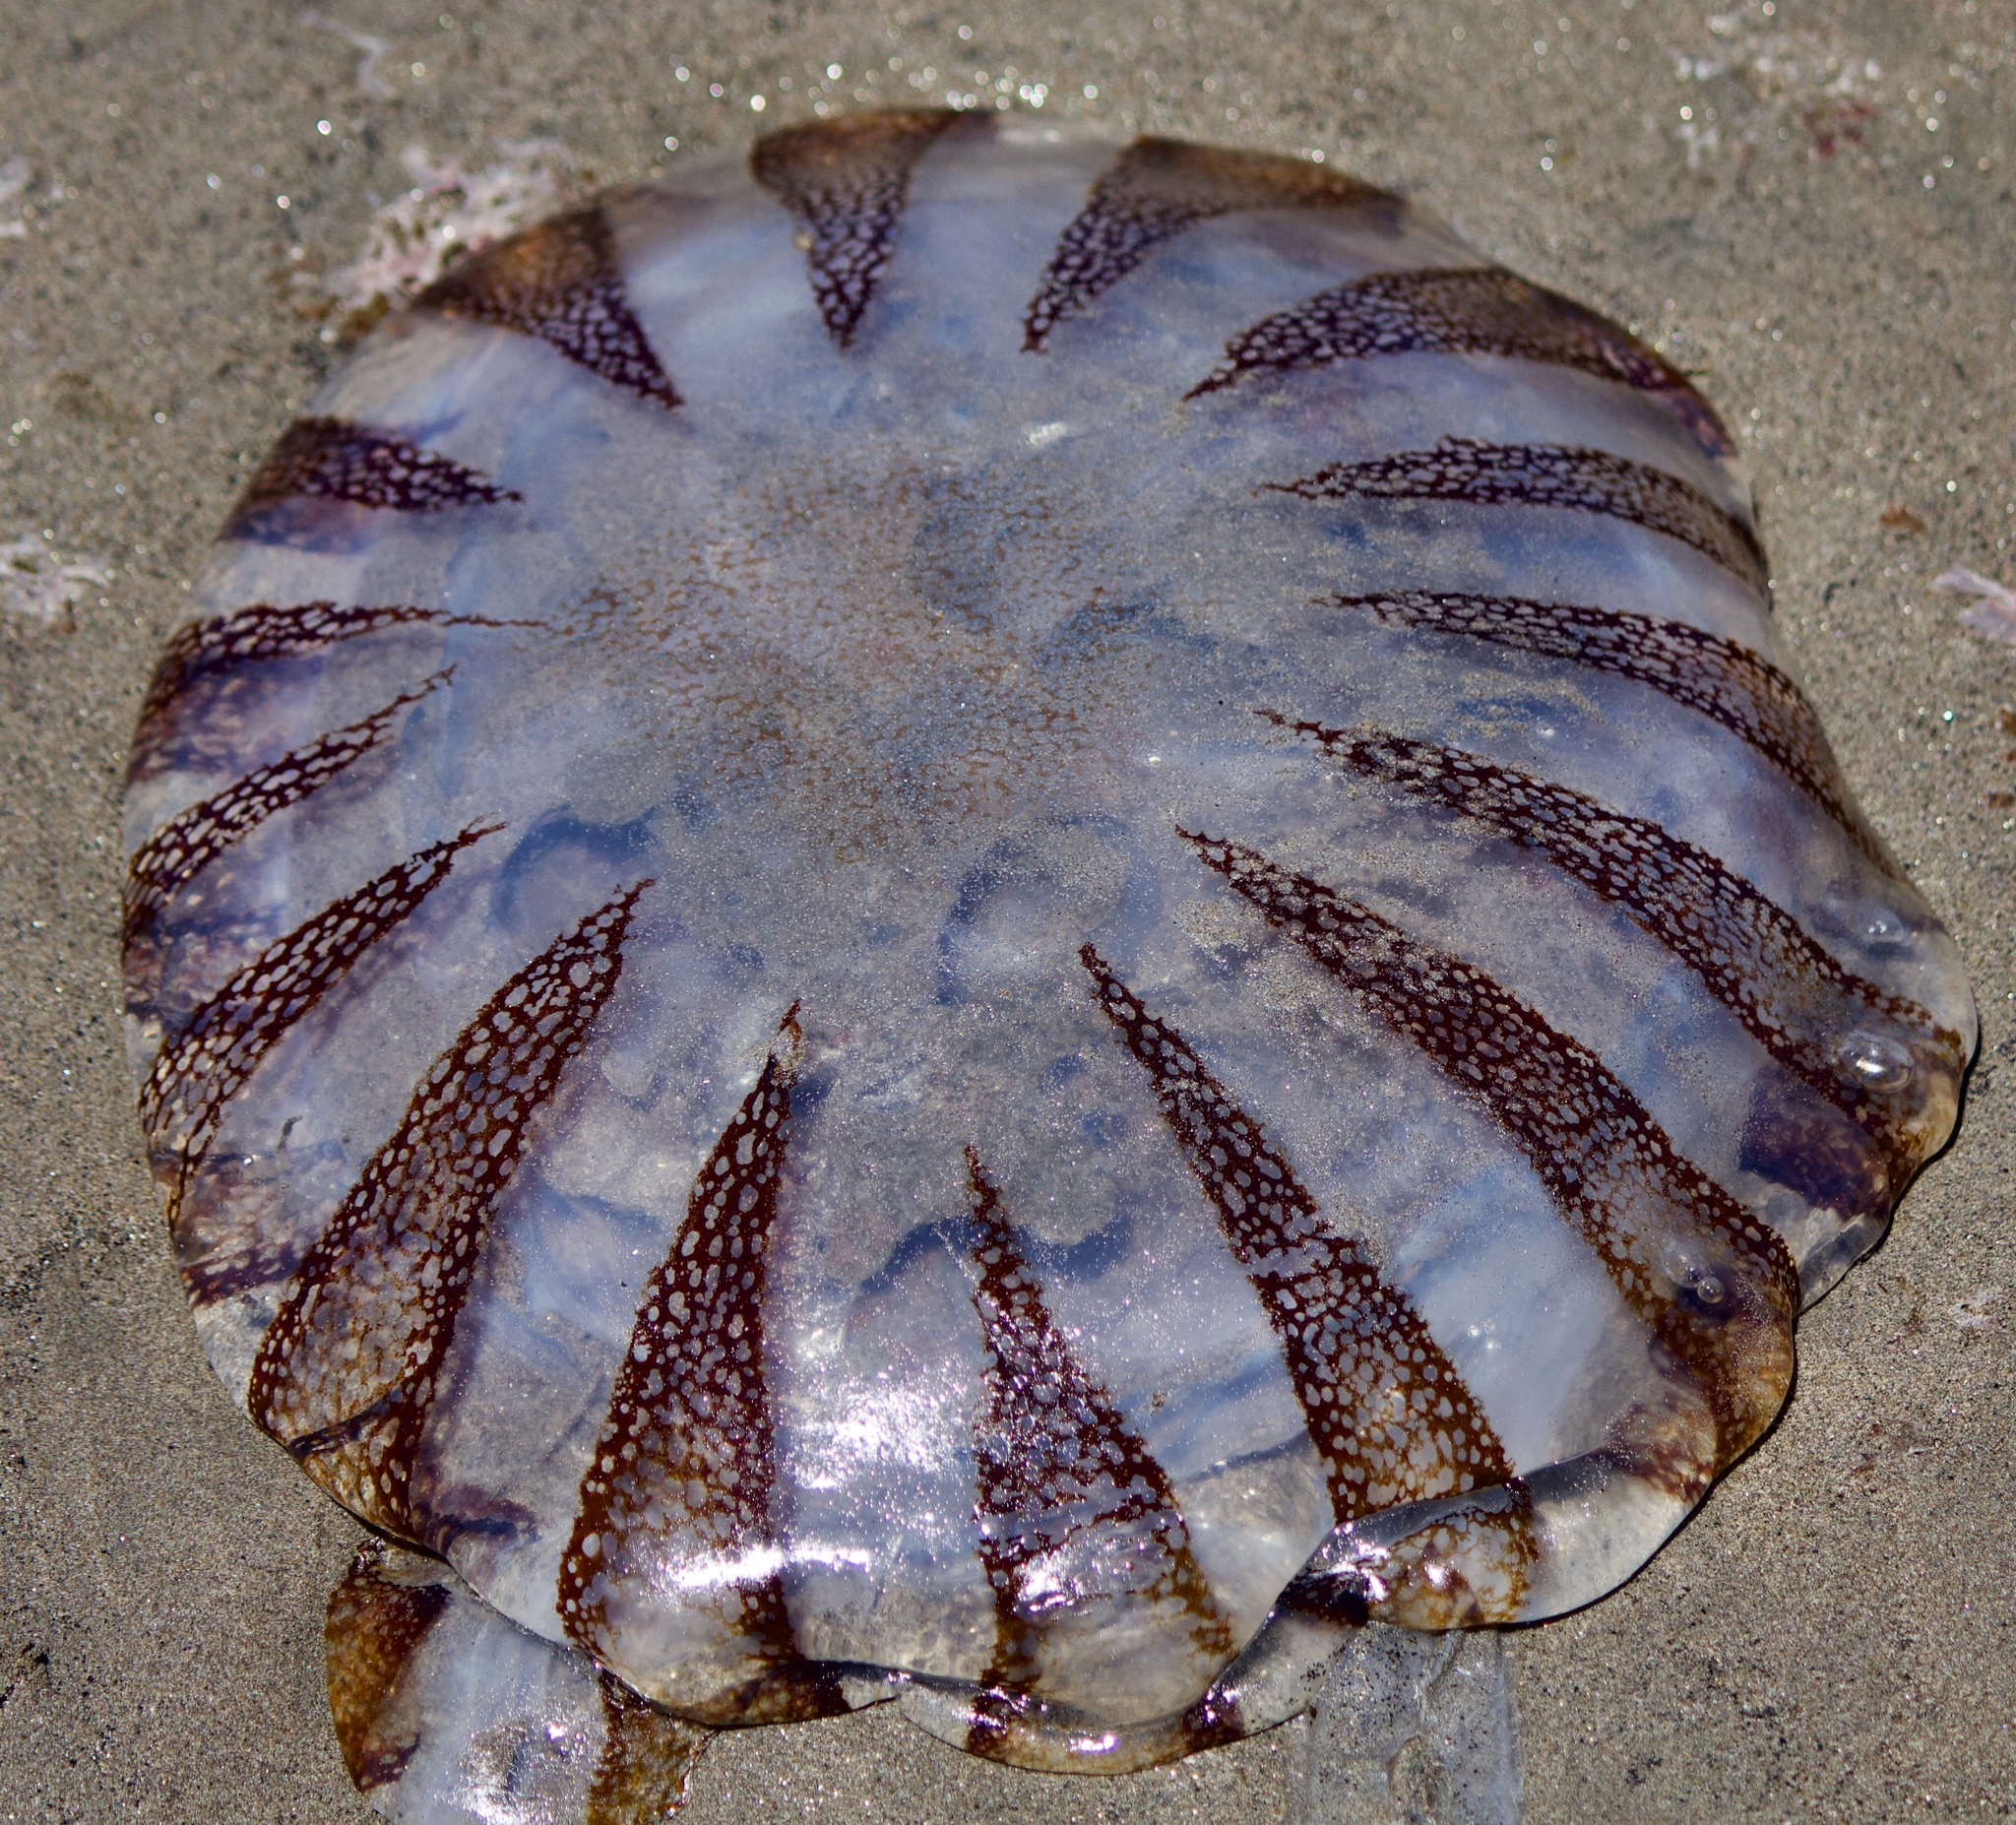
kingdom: Animalia
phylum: Cnidaria
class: Scyphozoa
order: Semaeostomeae
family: Pelagiidae
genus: Chrysaora
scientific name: Chrysaora plocamia
